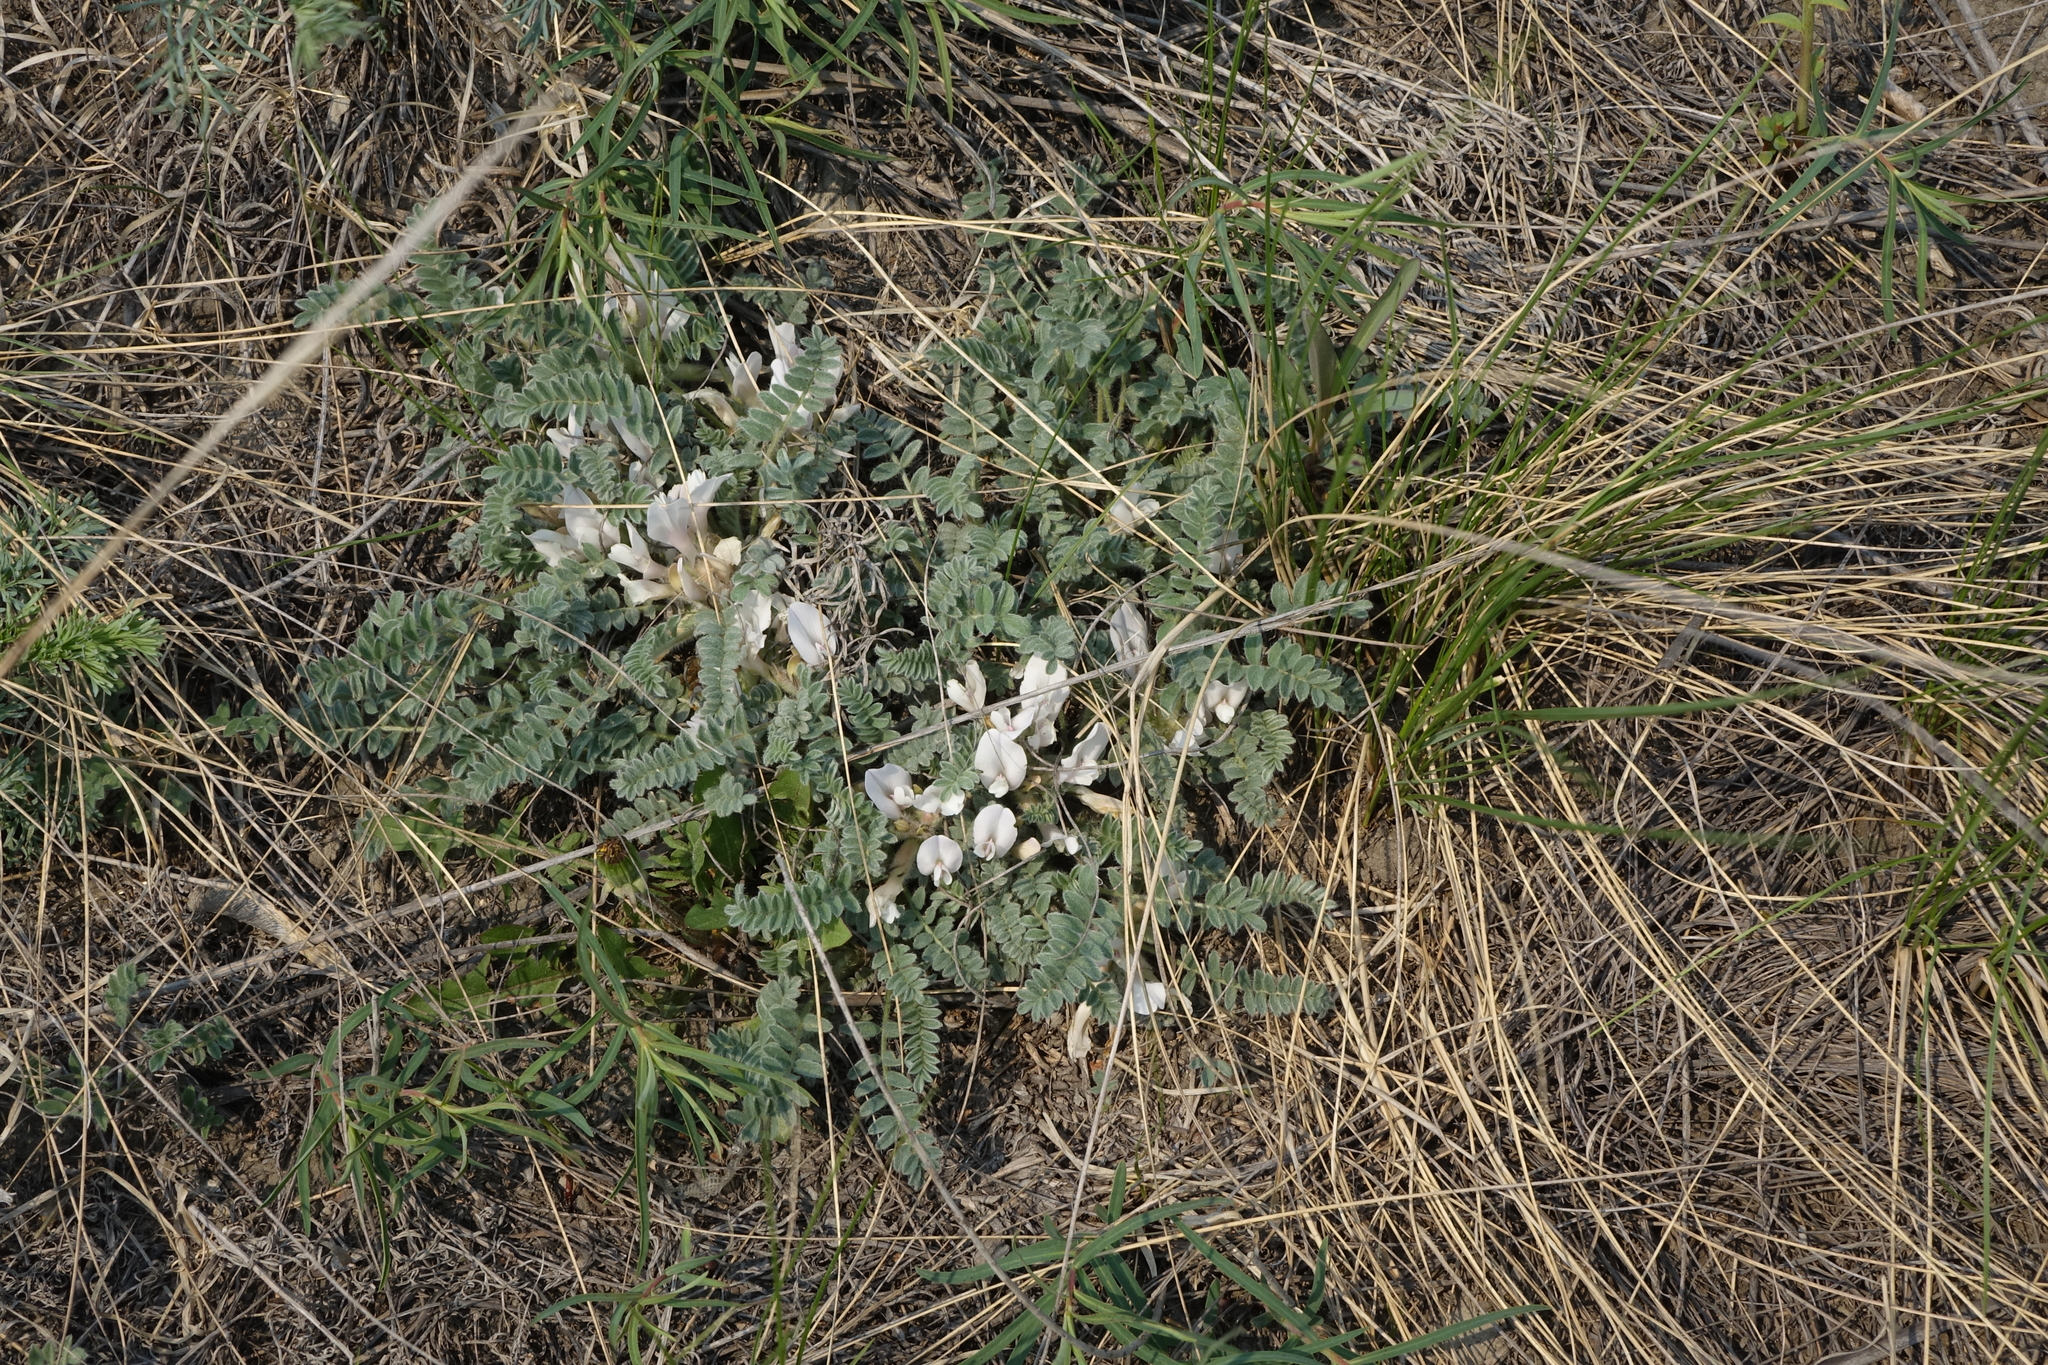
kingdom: Plantae
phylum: Tracheophyta
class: Magnoliopsida
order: Fabales
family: Fabaceae
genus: Astragalus
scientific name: Astragalus testiculatus
